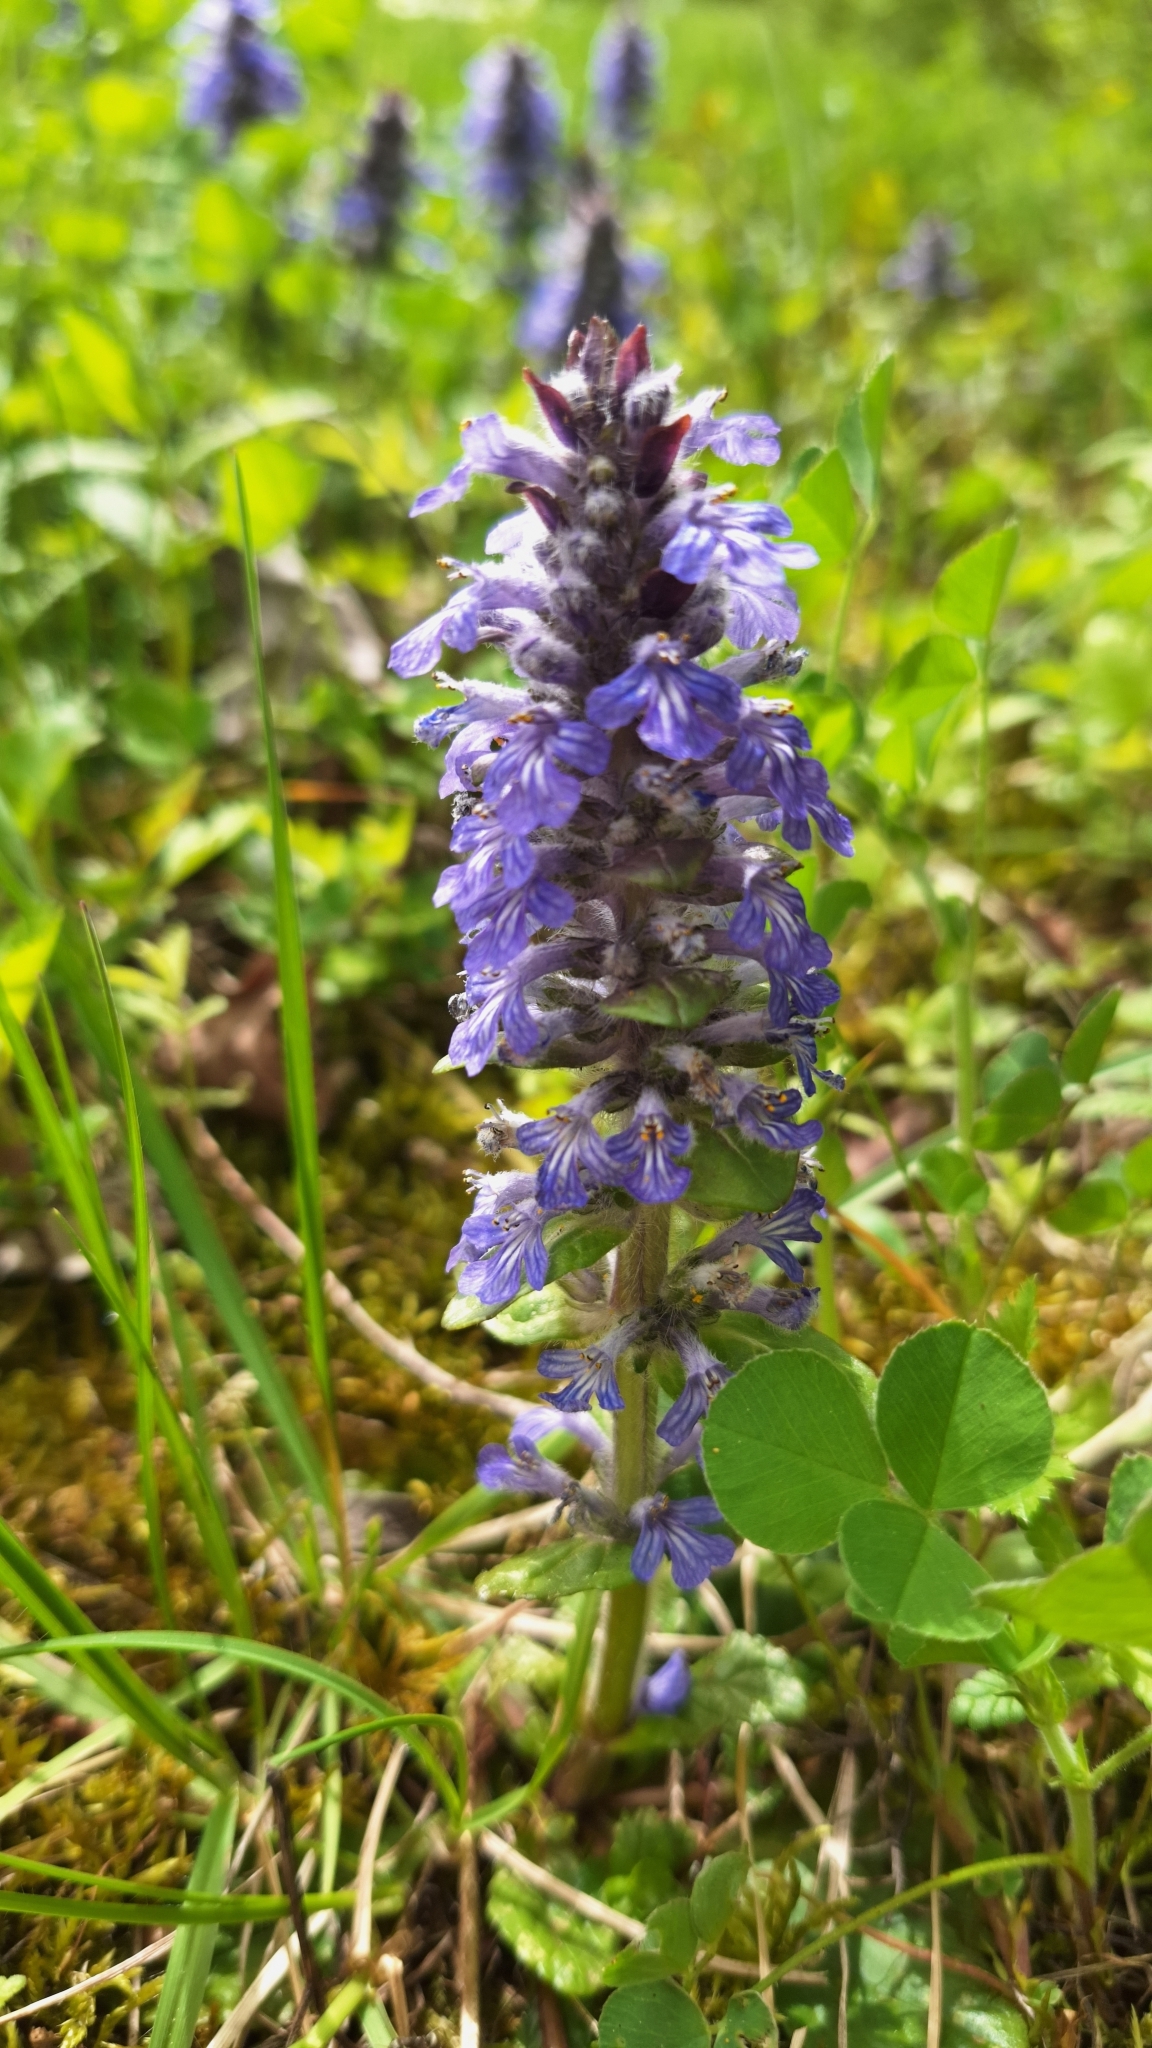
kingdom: Plantae
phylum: Tracheophyta
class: Magnoliopsida
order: Lamiales
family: Lamiaceae
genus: Ajuga
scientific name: Ajuga reptans
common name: Bugle
